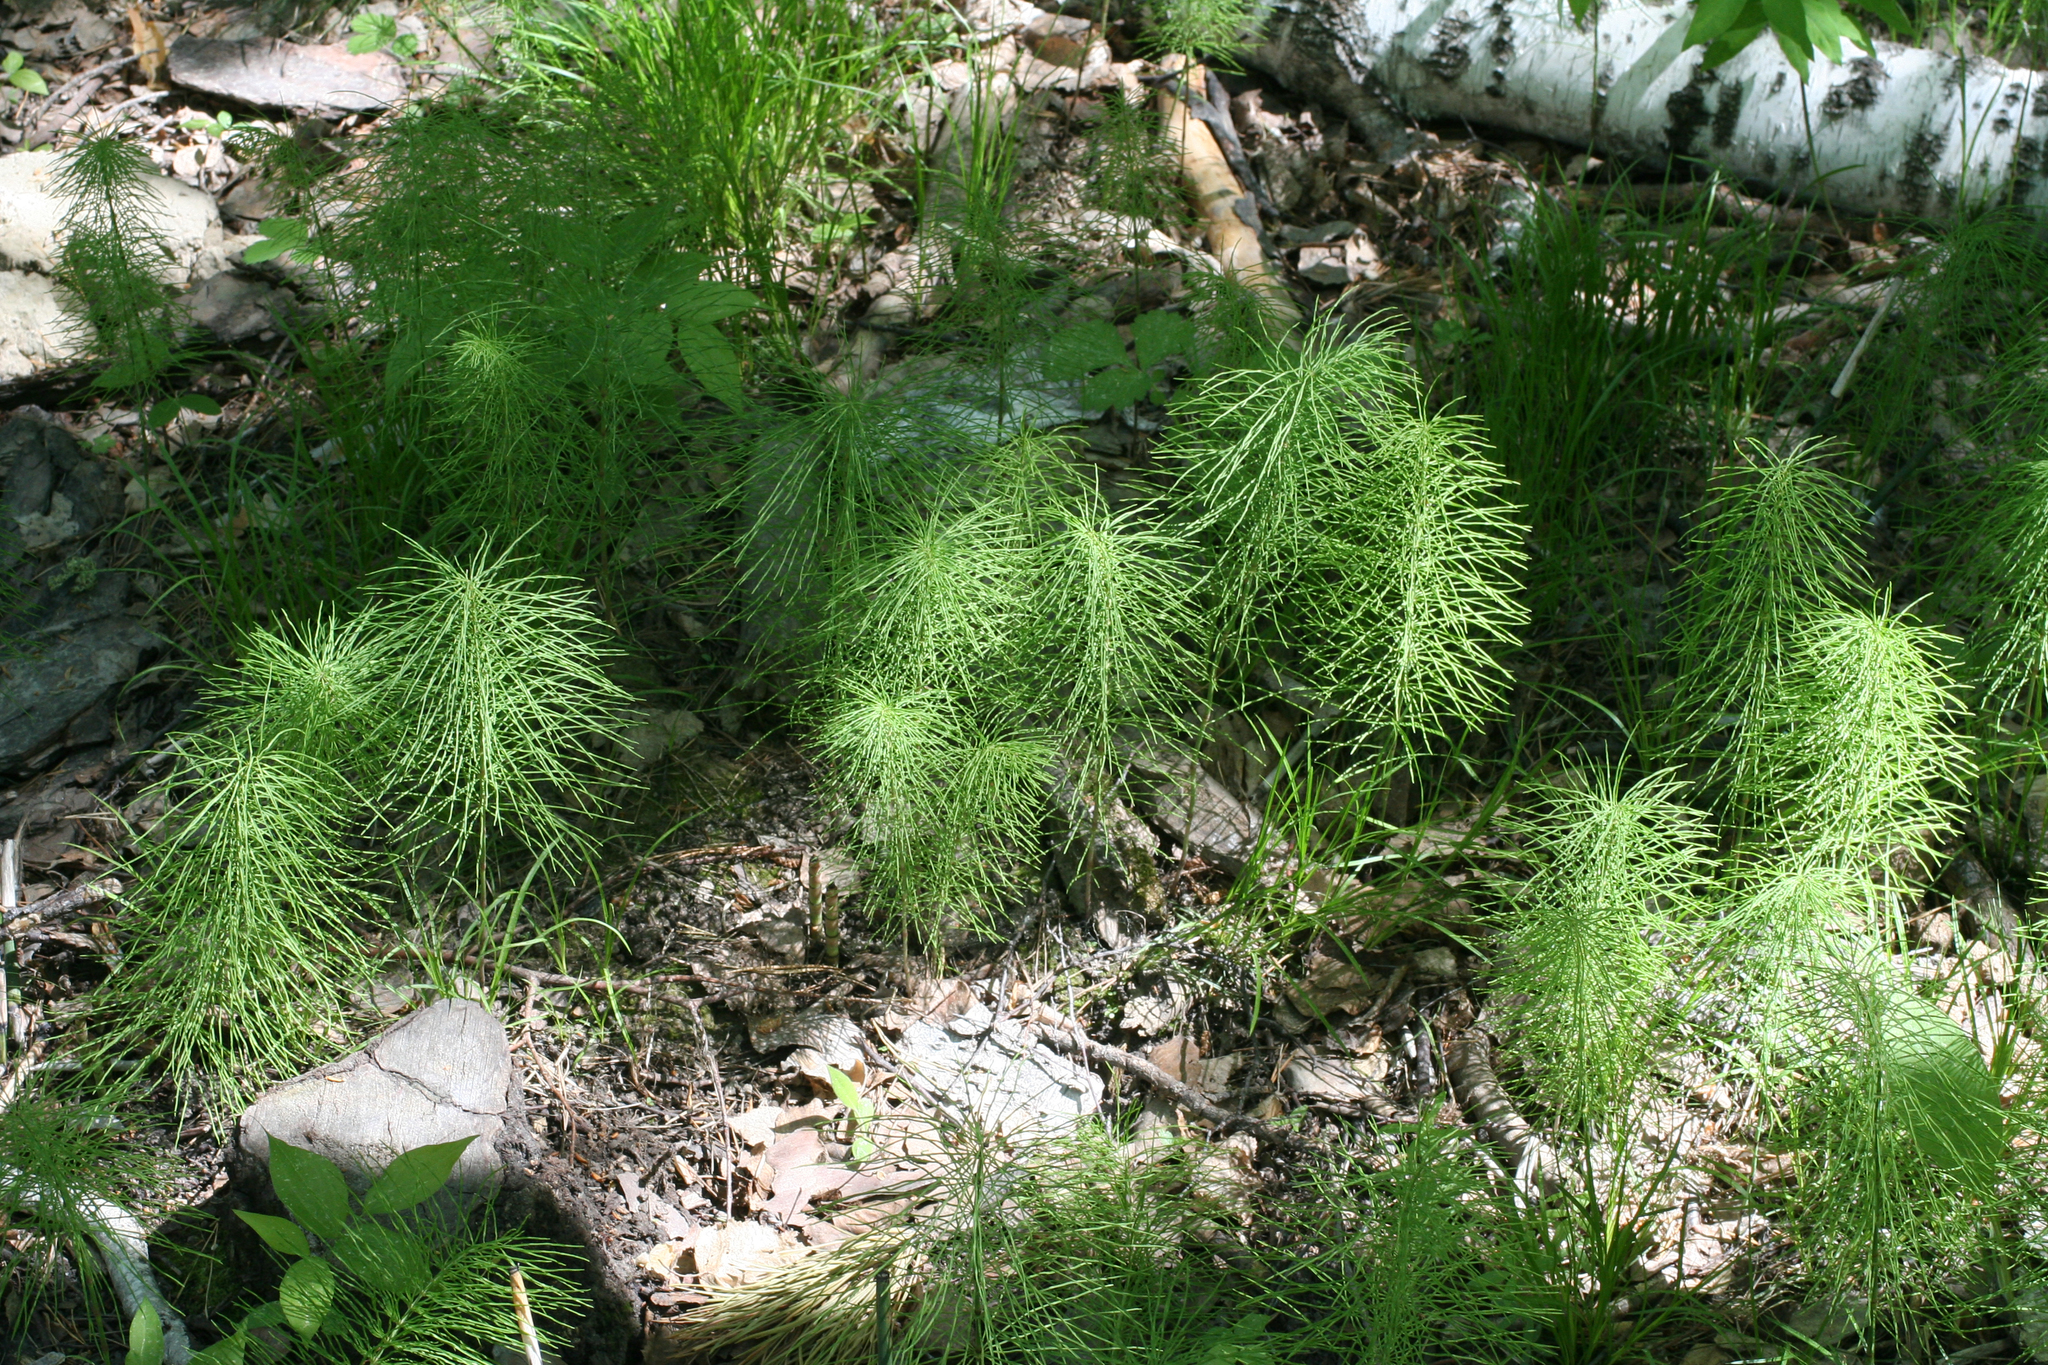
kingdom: Plantae
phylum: Tracheophyta
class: Polypodiopsida
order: Equisetales
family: Equisetaceae
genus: Equisetum
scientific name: Equisetum pratense
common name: Meadow horsetail
